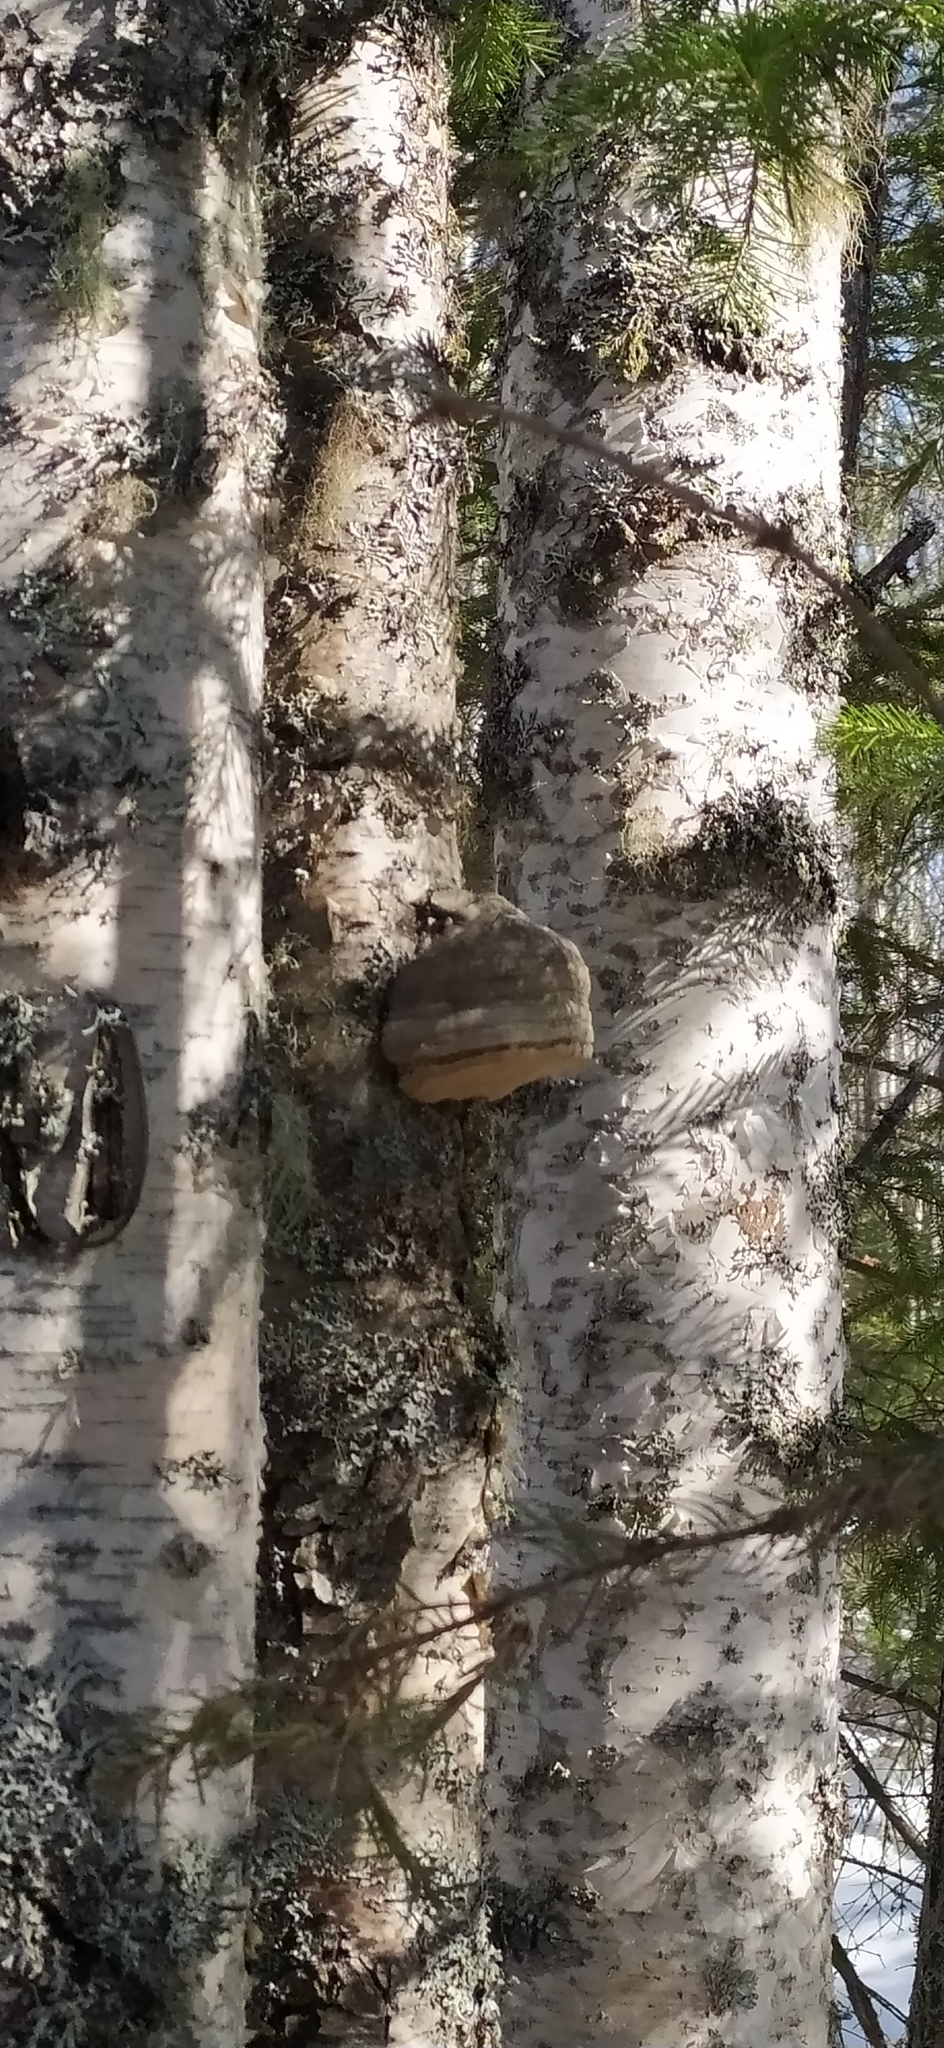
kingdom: Fungi
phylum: Basidiomycota
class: Agaricomycetes
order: Polyporales
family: Polyporaceae
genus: Fomes
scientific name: Fomes fomentarius
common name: Hoof fungus
